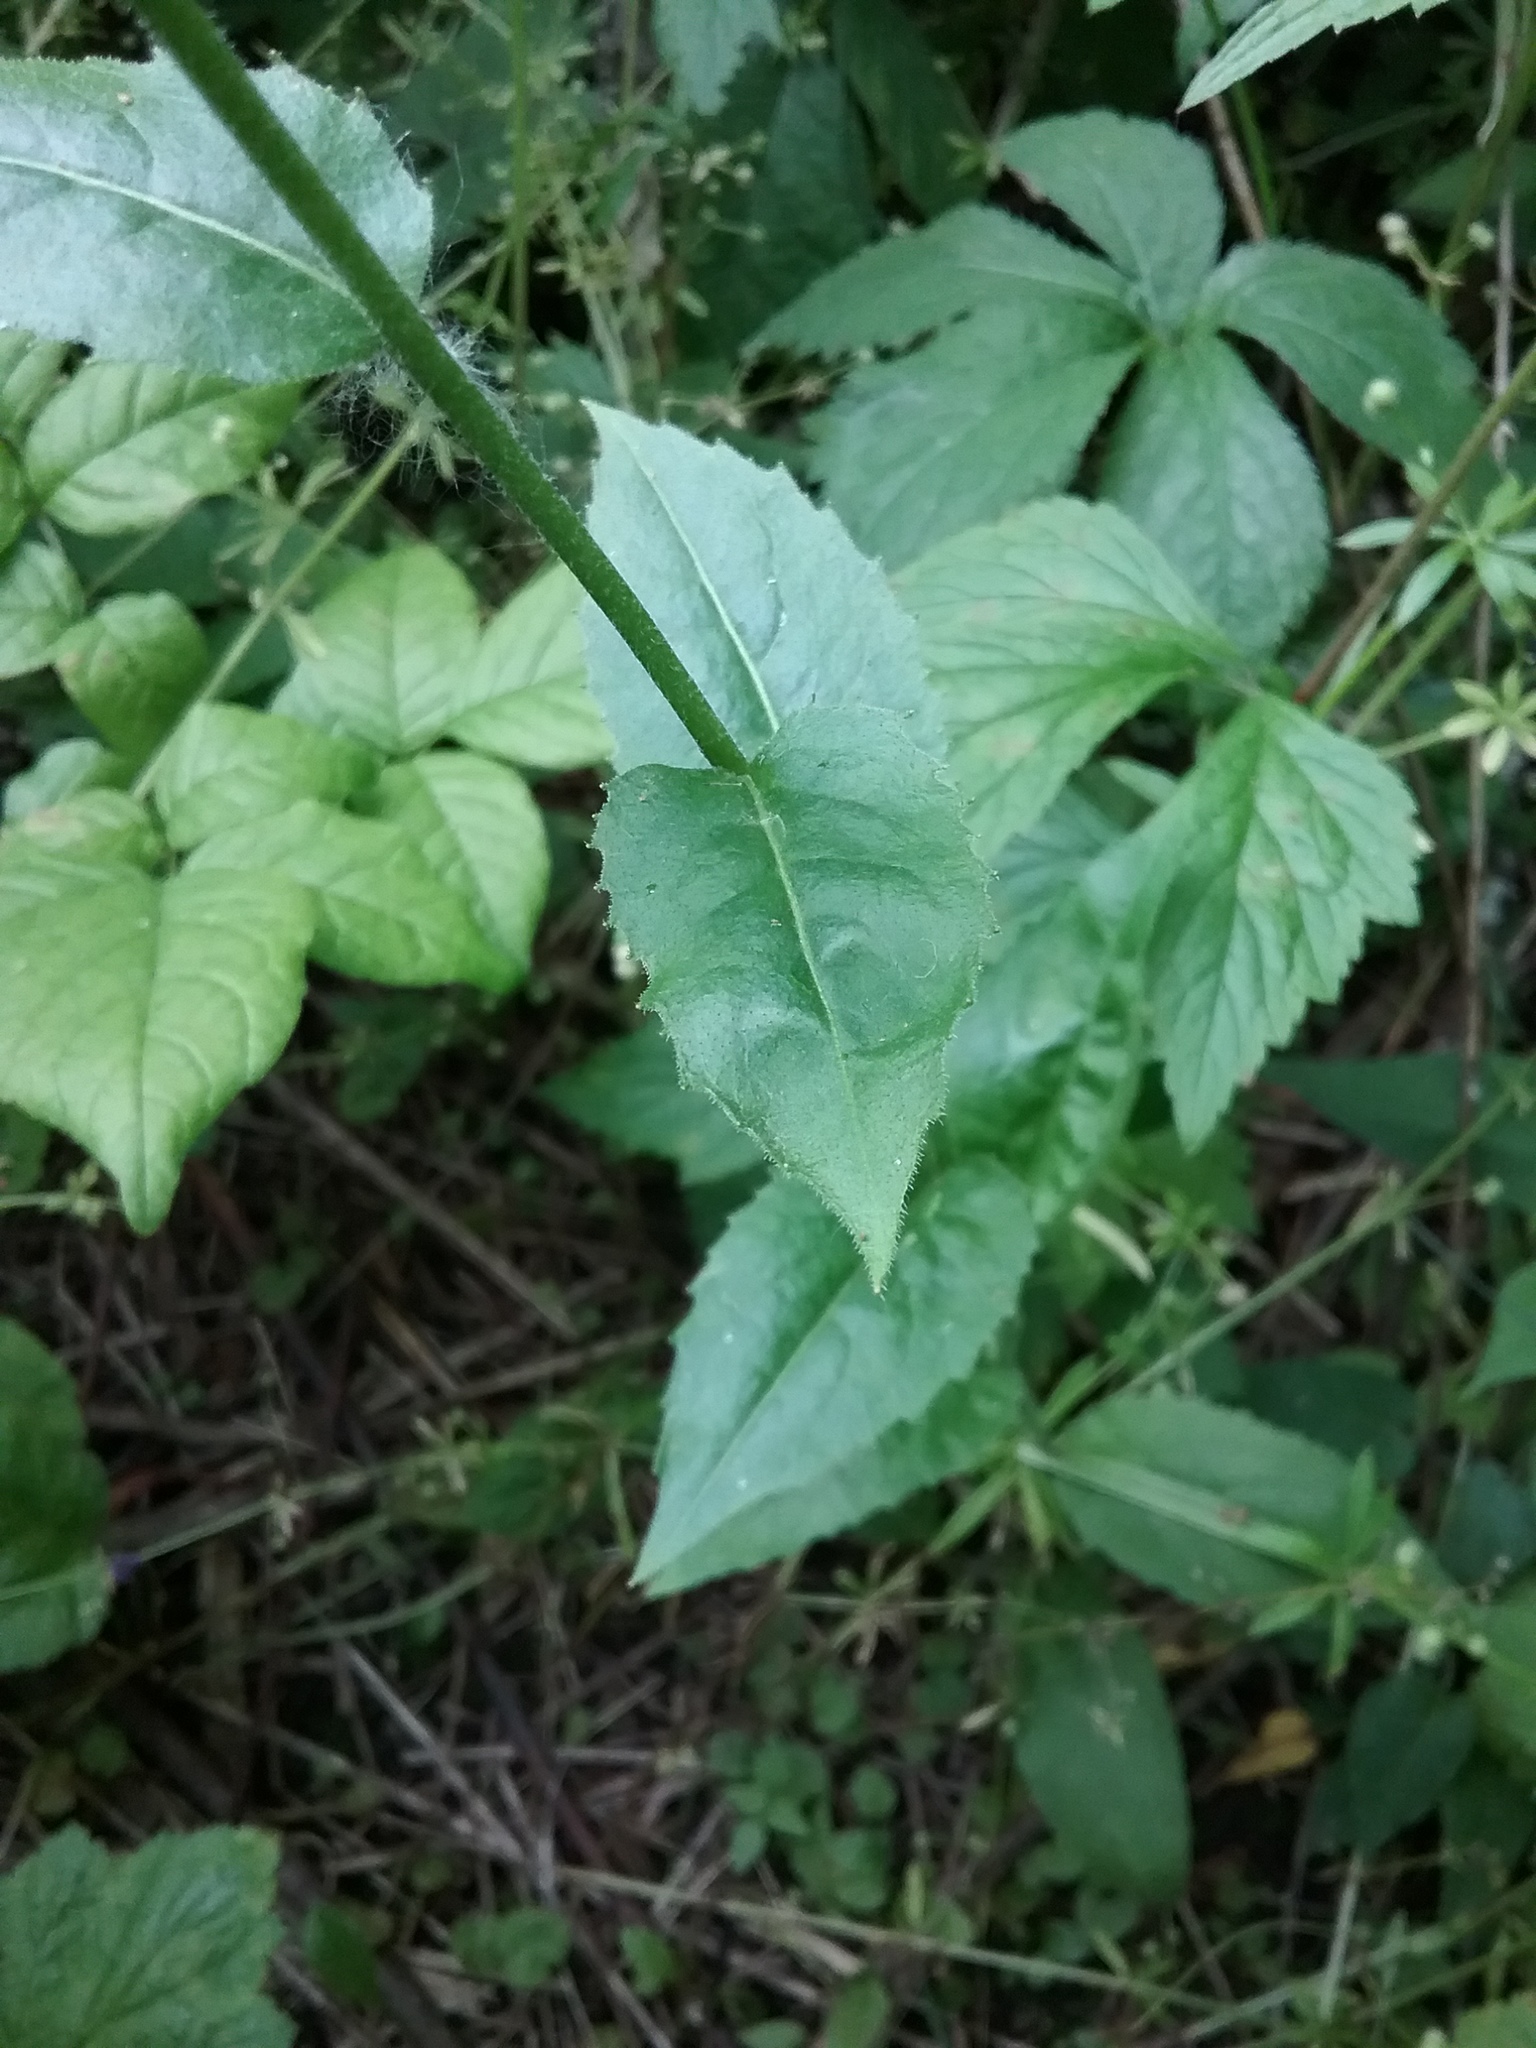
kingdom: Plantae
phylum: Tracheophyta
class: Magnoliopsida
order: Brassicales
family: Brassicaceae
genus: Hesperis
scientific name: Hesperis matronalis
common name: Dame's-violet
